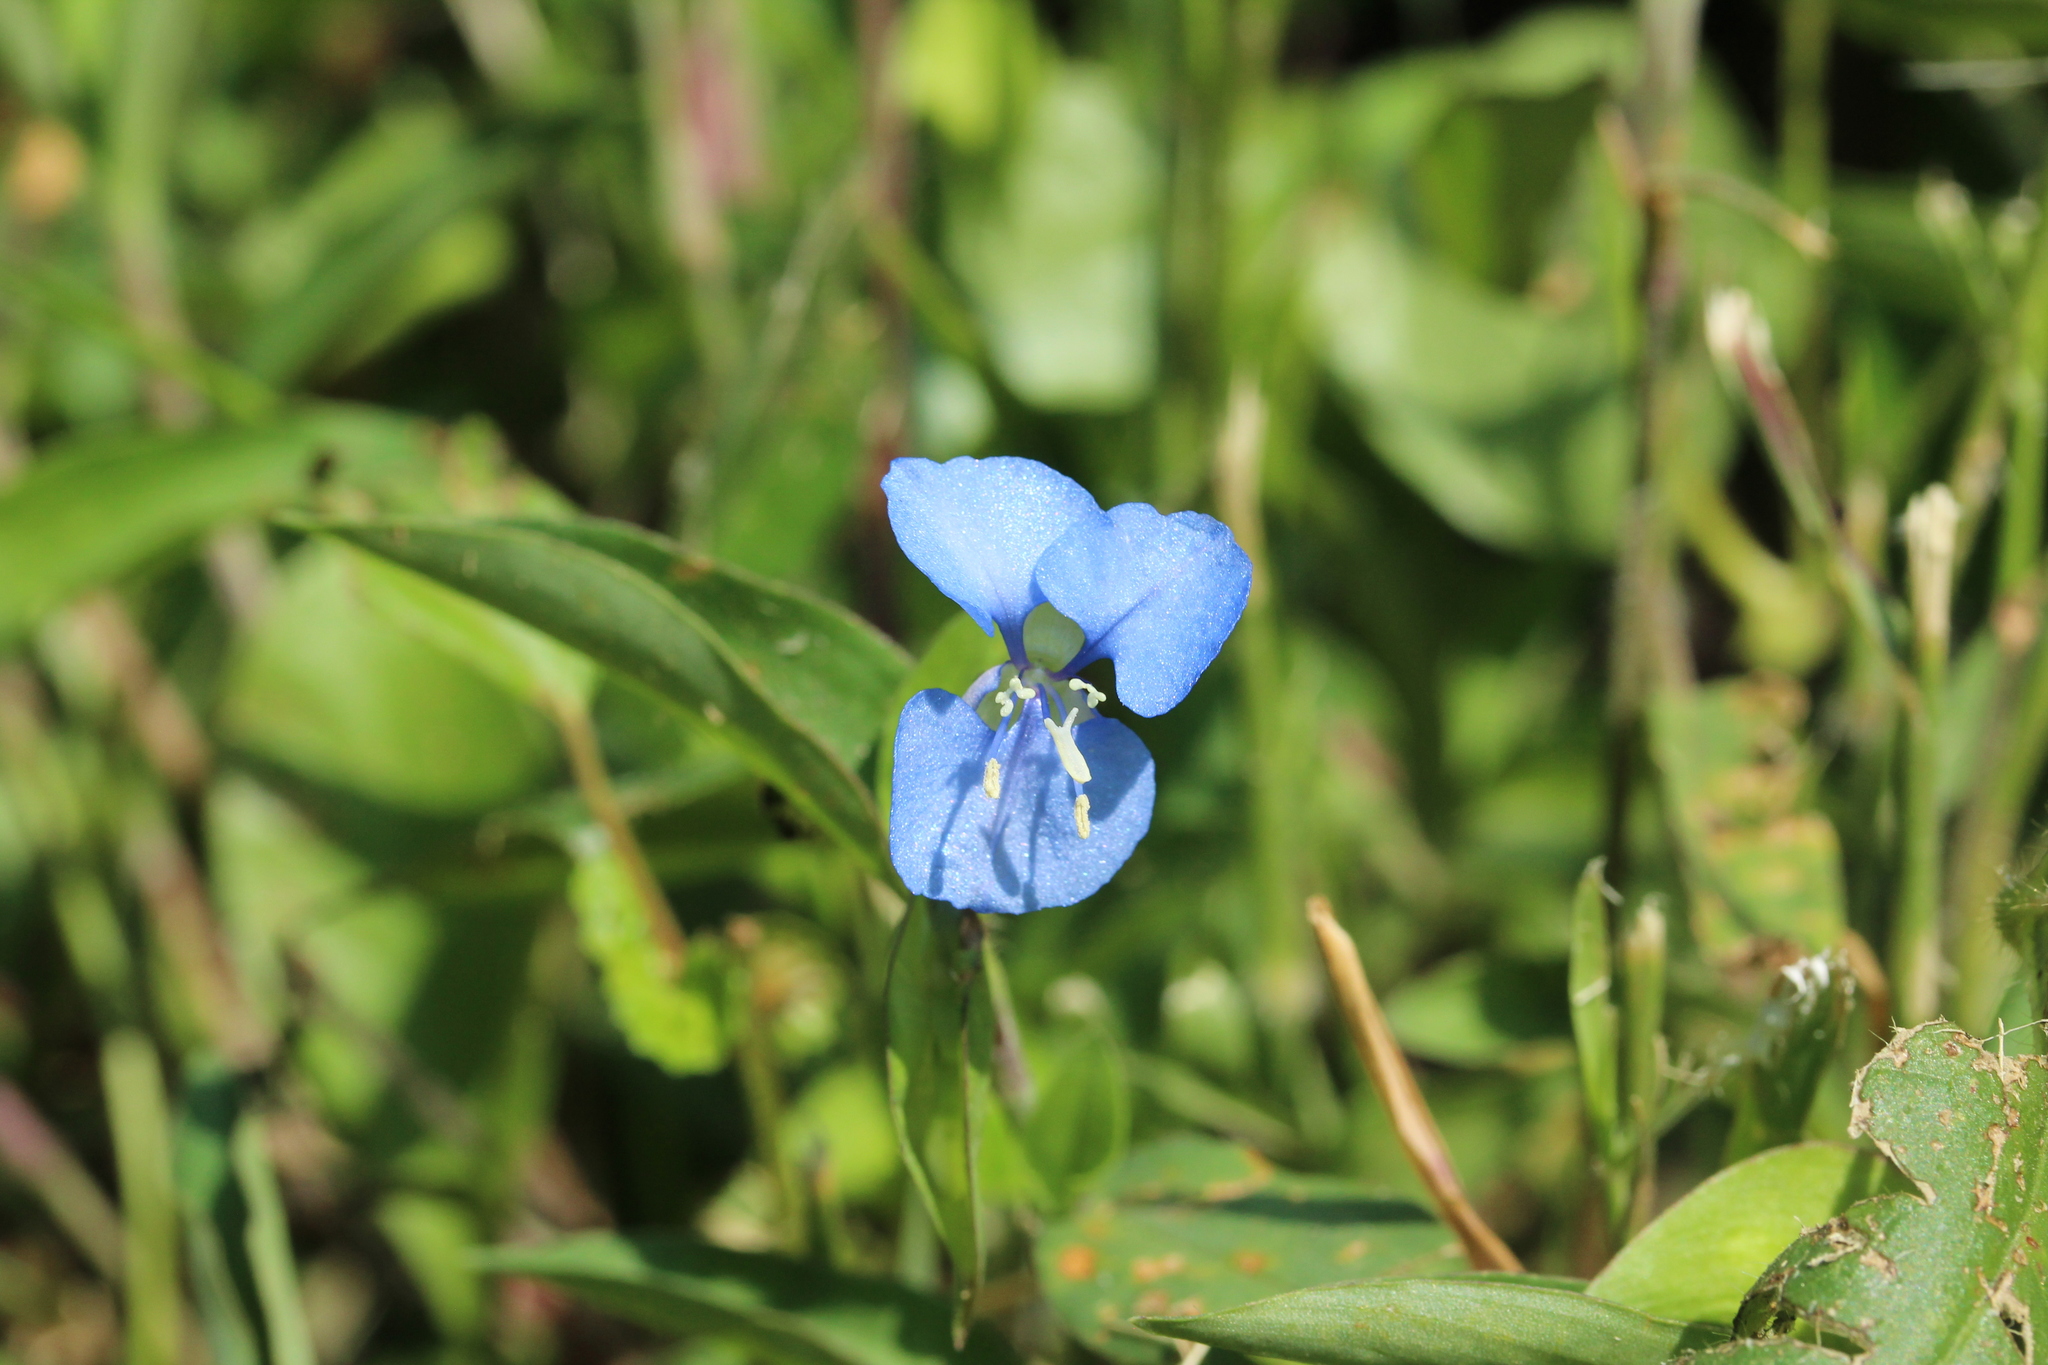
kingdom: Plantae
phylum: Tracheophyta
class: Liliopsida
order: Commelinales
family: Commelinaceae
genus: Commelina
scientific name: Commelina diffusa
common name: Climbing dayflower
